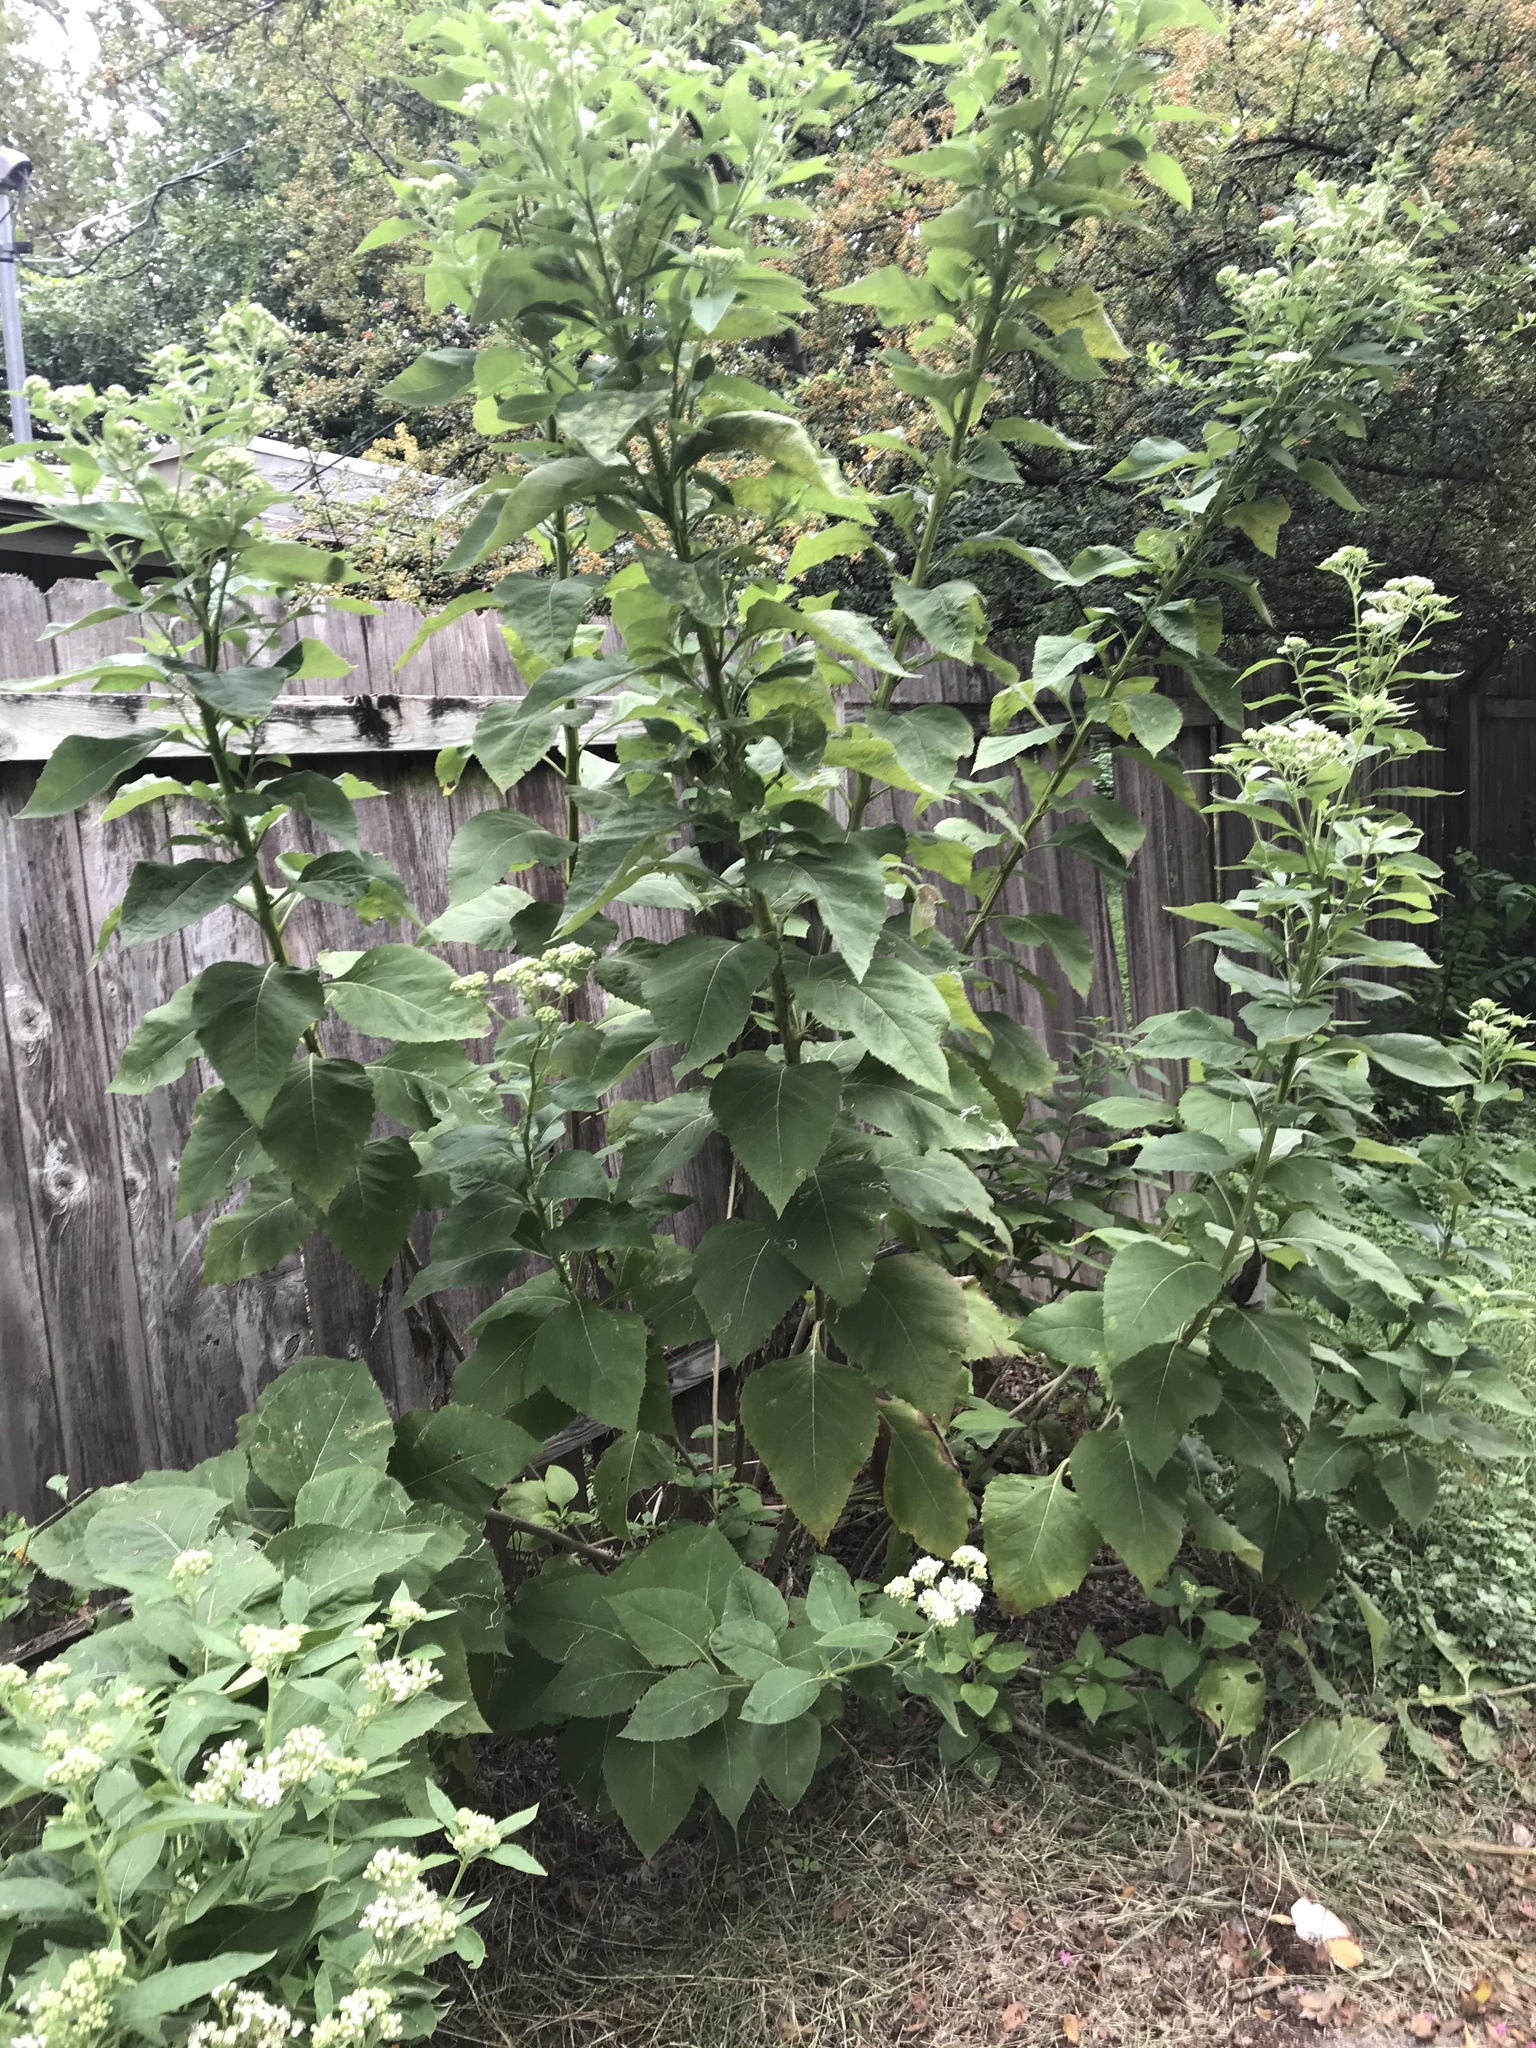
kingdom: Plantae
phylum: Tracheophyta
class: Magnoliopsida
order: Asterales
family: Asteraceae
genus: Verbesina
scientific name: Verbesina virginica
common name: Frostweed
